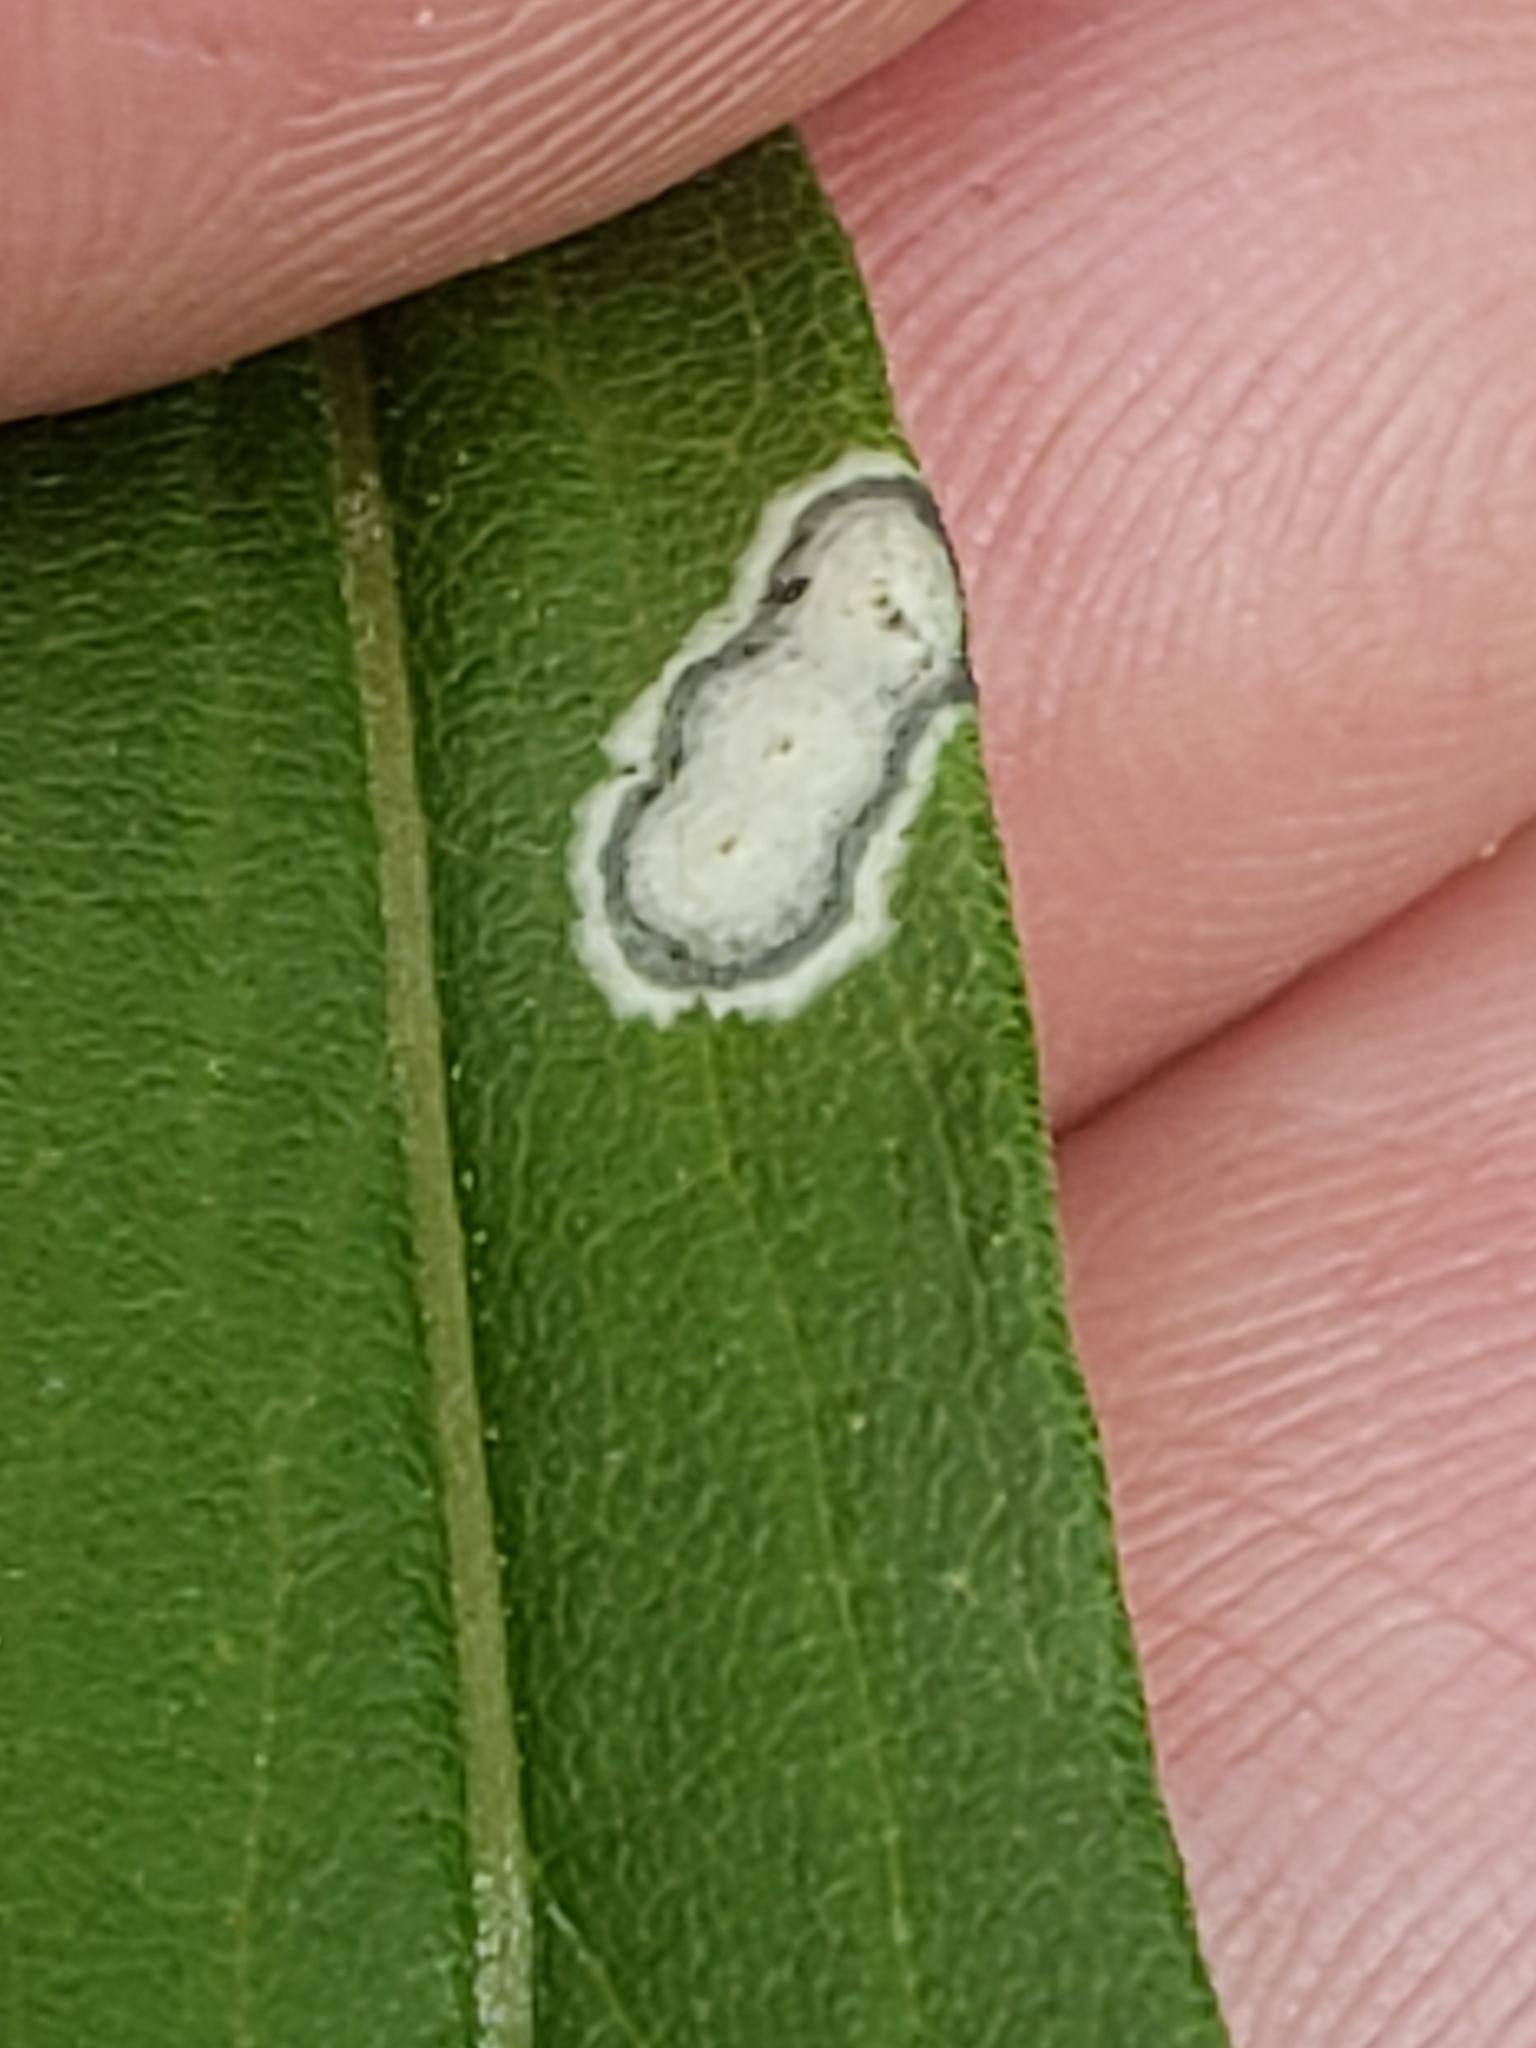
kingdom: Animalia
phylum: Arthropoda
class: Insecta
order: Diptera
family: Cecidomyiidae
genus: Asteromyia
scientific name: Asteromyia carbonifera
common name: Carbonifera goldenrod gall midge
